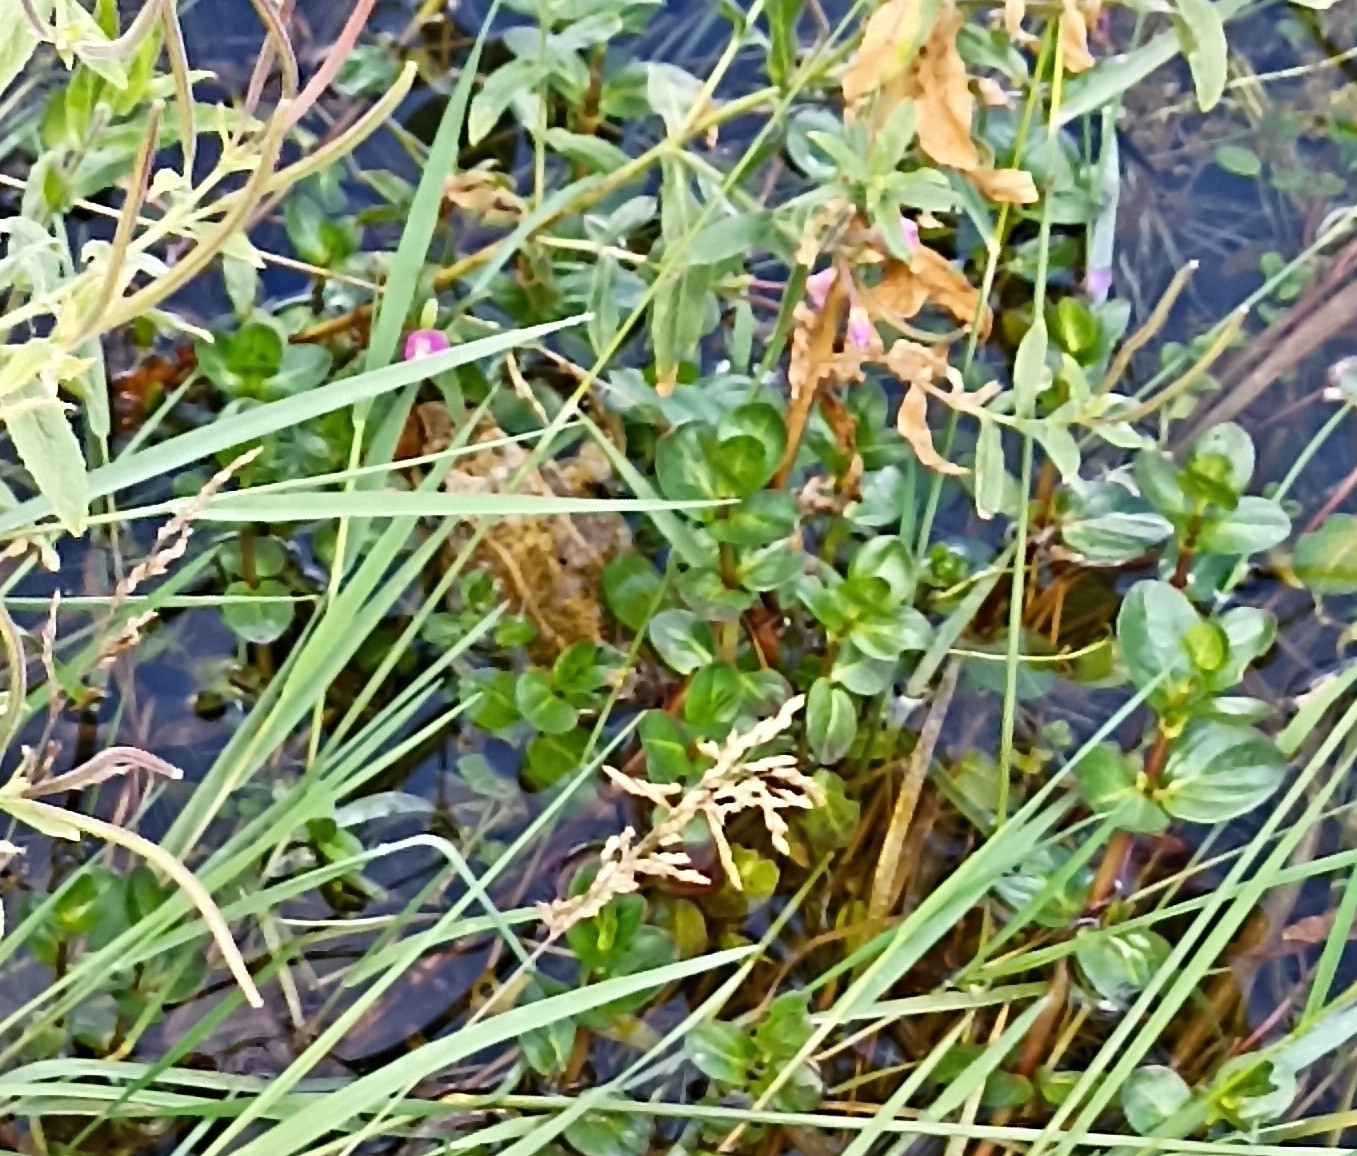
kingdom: Animalia
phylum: Chordata
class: Amphibia
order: Anura
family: Ranidae
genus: Rana
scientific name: Rana temporaria
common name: Common frog
